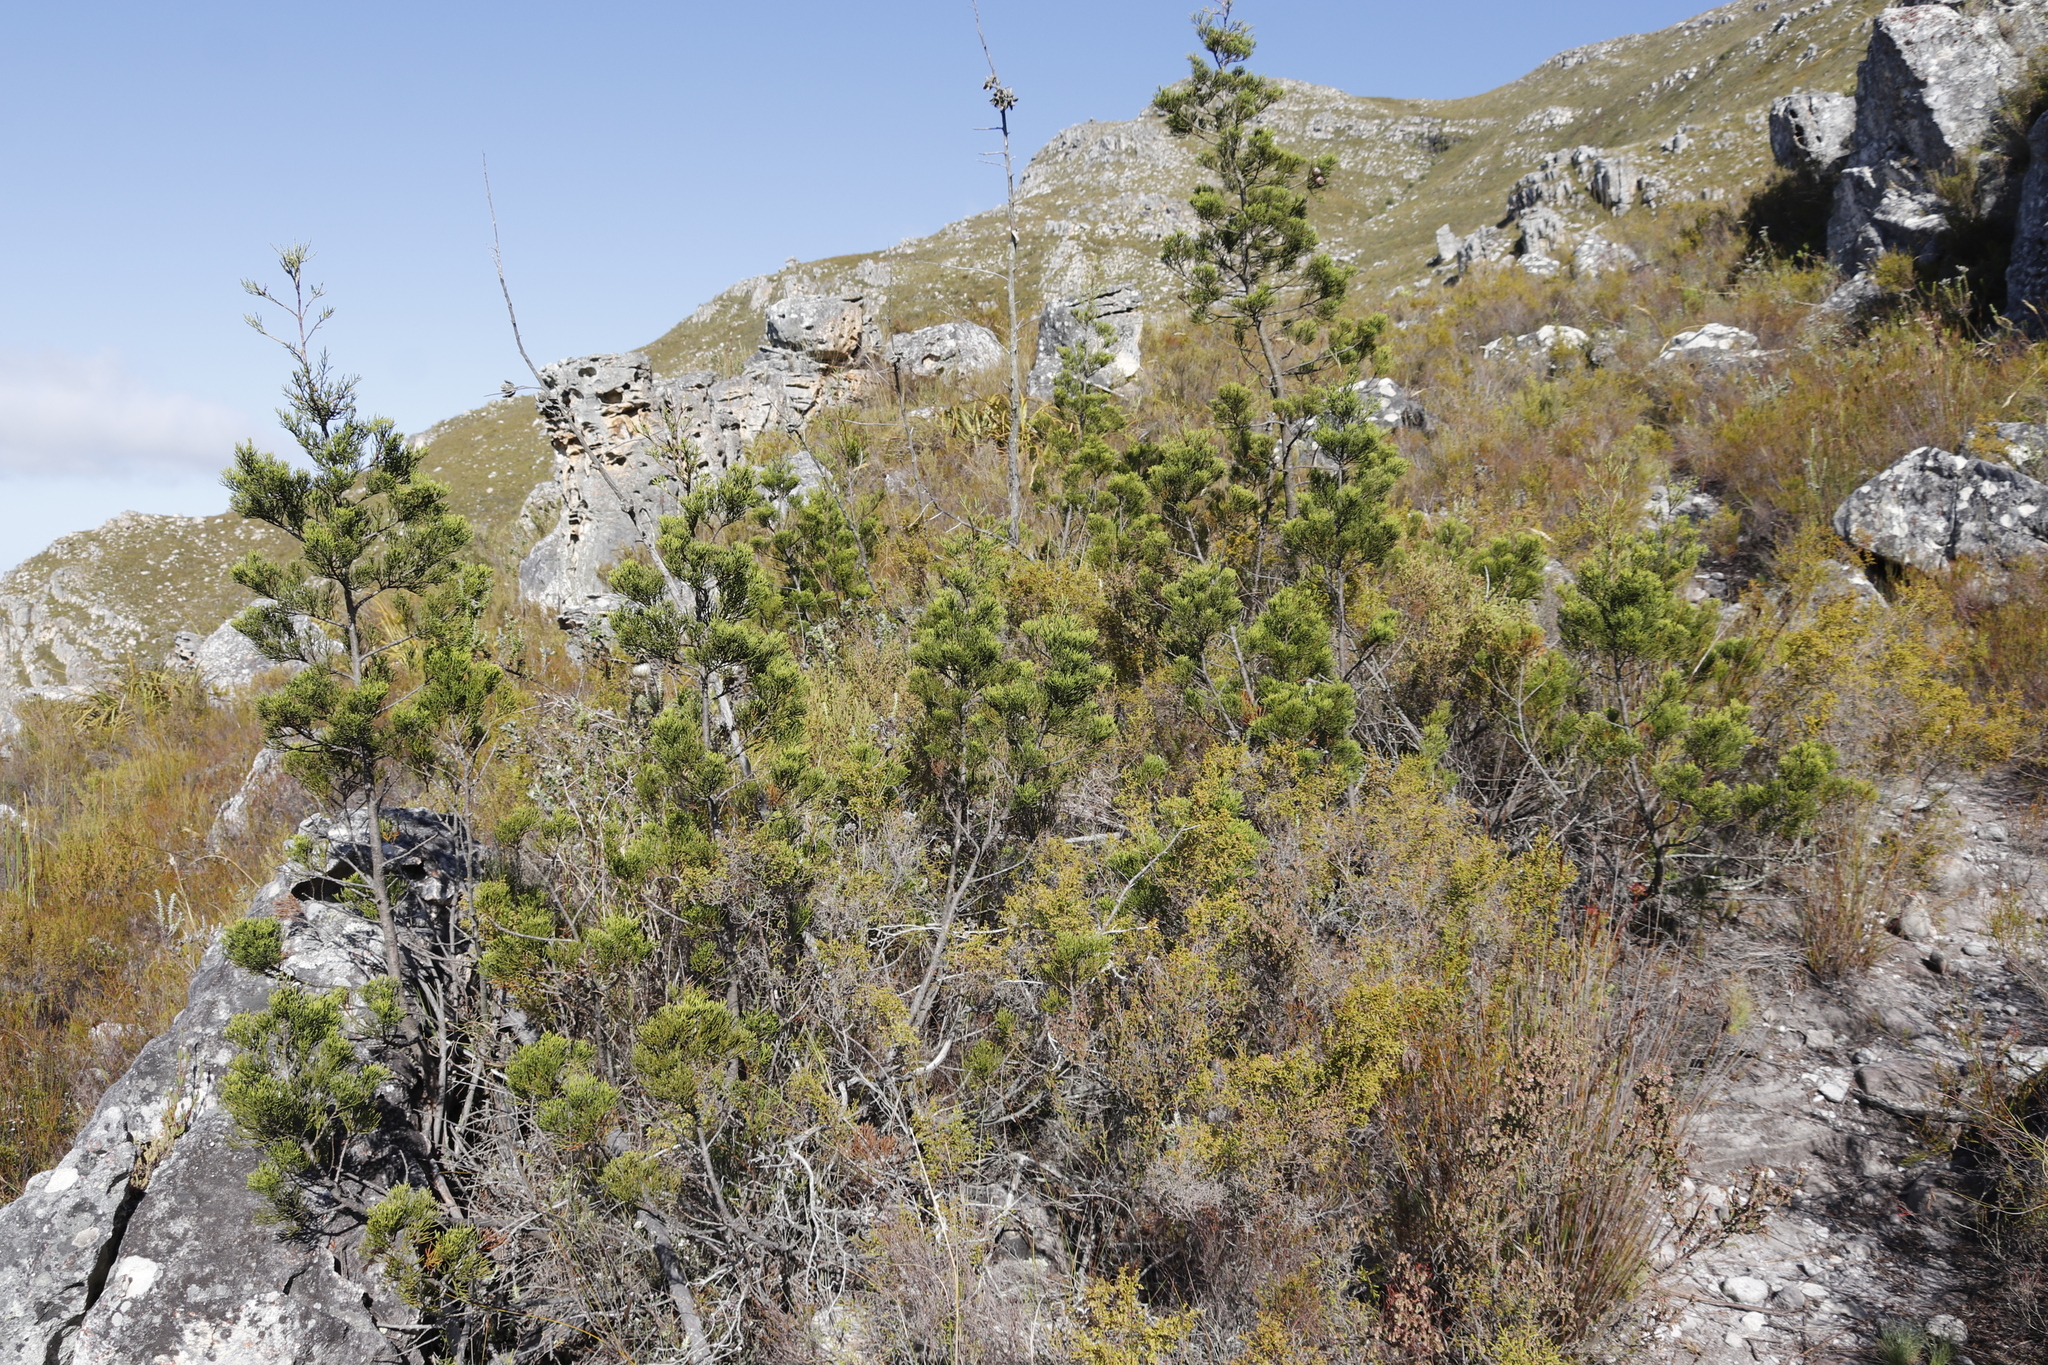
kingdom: Plantae
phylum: Tracheophyta
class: Pinopsida
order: Pinales
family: Cupressaceae
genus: Widdringtonia
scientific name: Widdringtonia nodiflora
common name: Cape cypress
